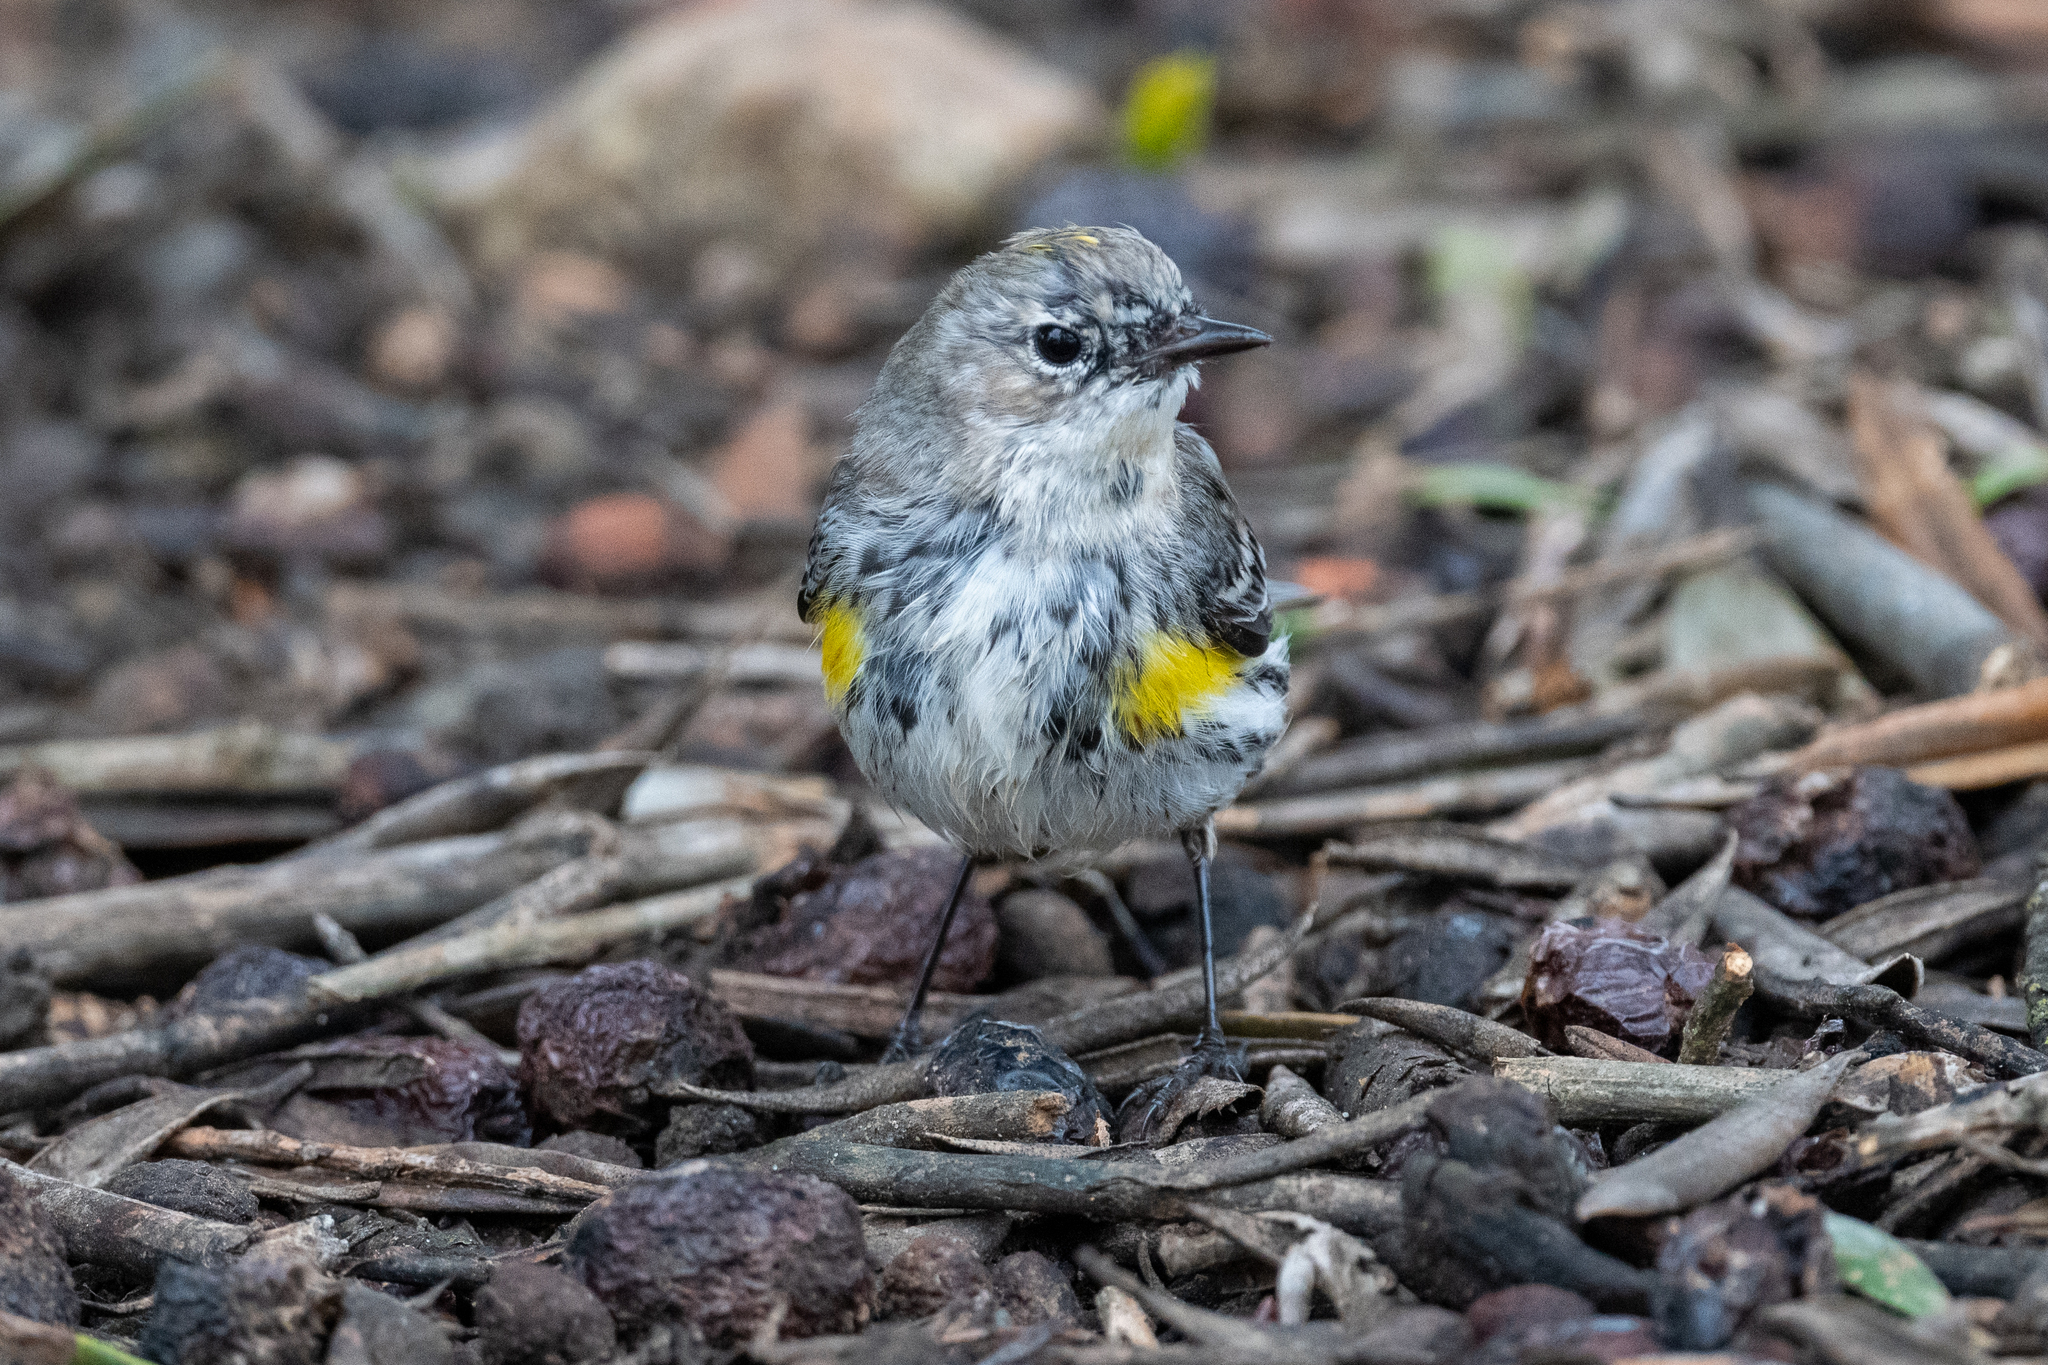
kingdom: Animalia
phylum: Chordata
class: Aves
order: Passeriformes
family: Parulidae
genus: Setophaga
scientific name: Setophaga coronata
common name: Myrtle warbler
